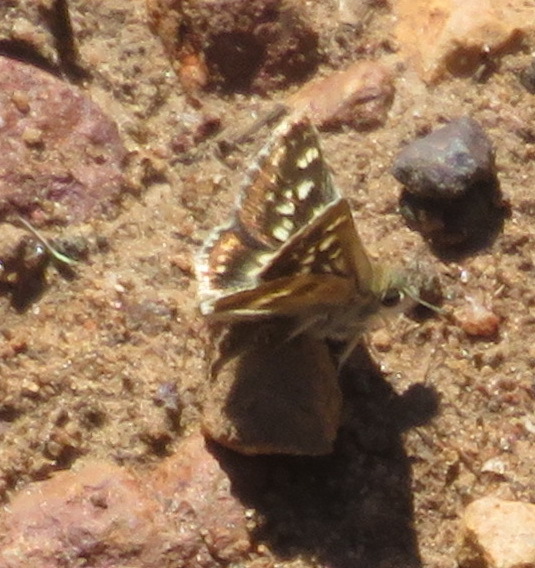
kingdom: Animalia
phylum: Arthropoda
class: Insecta
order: Lepidoptera
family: Hesperiidae
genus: Ernsta
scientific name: Ernsta
